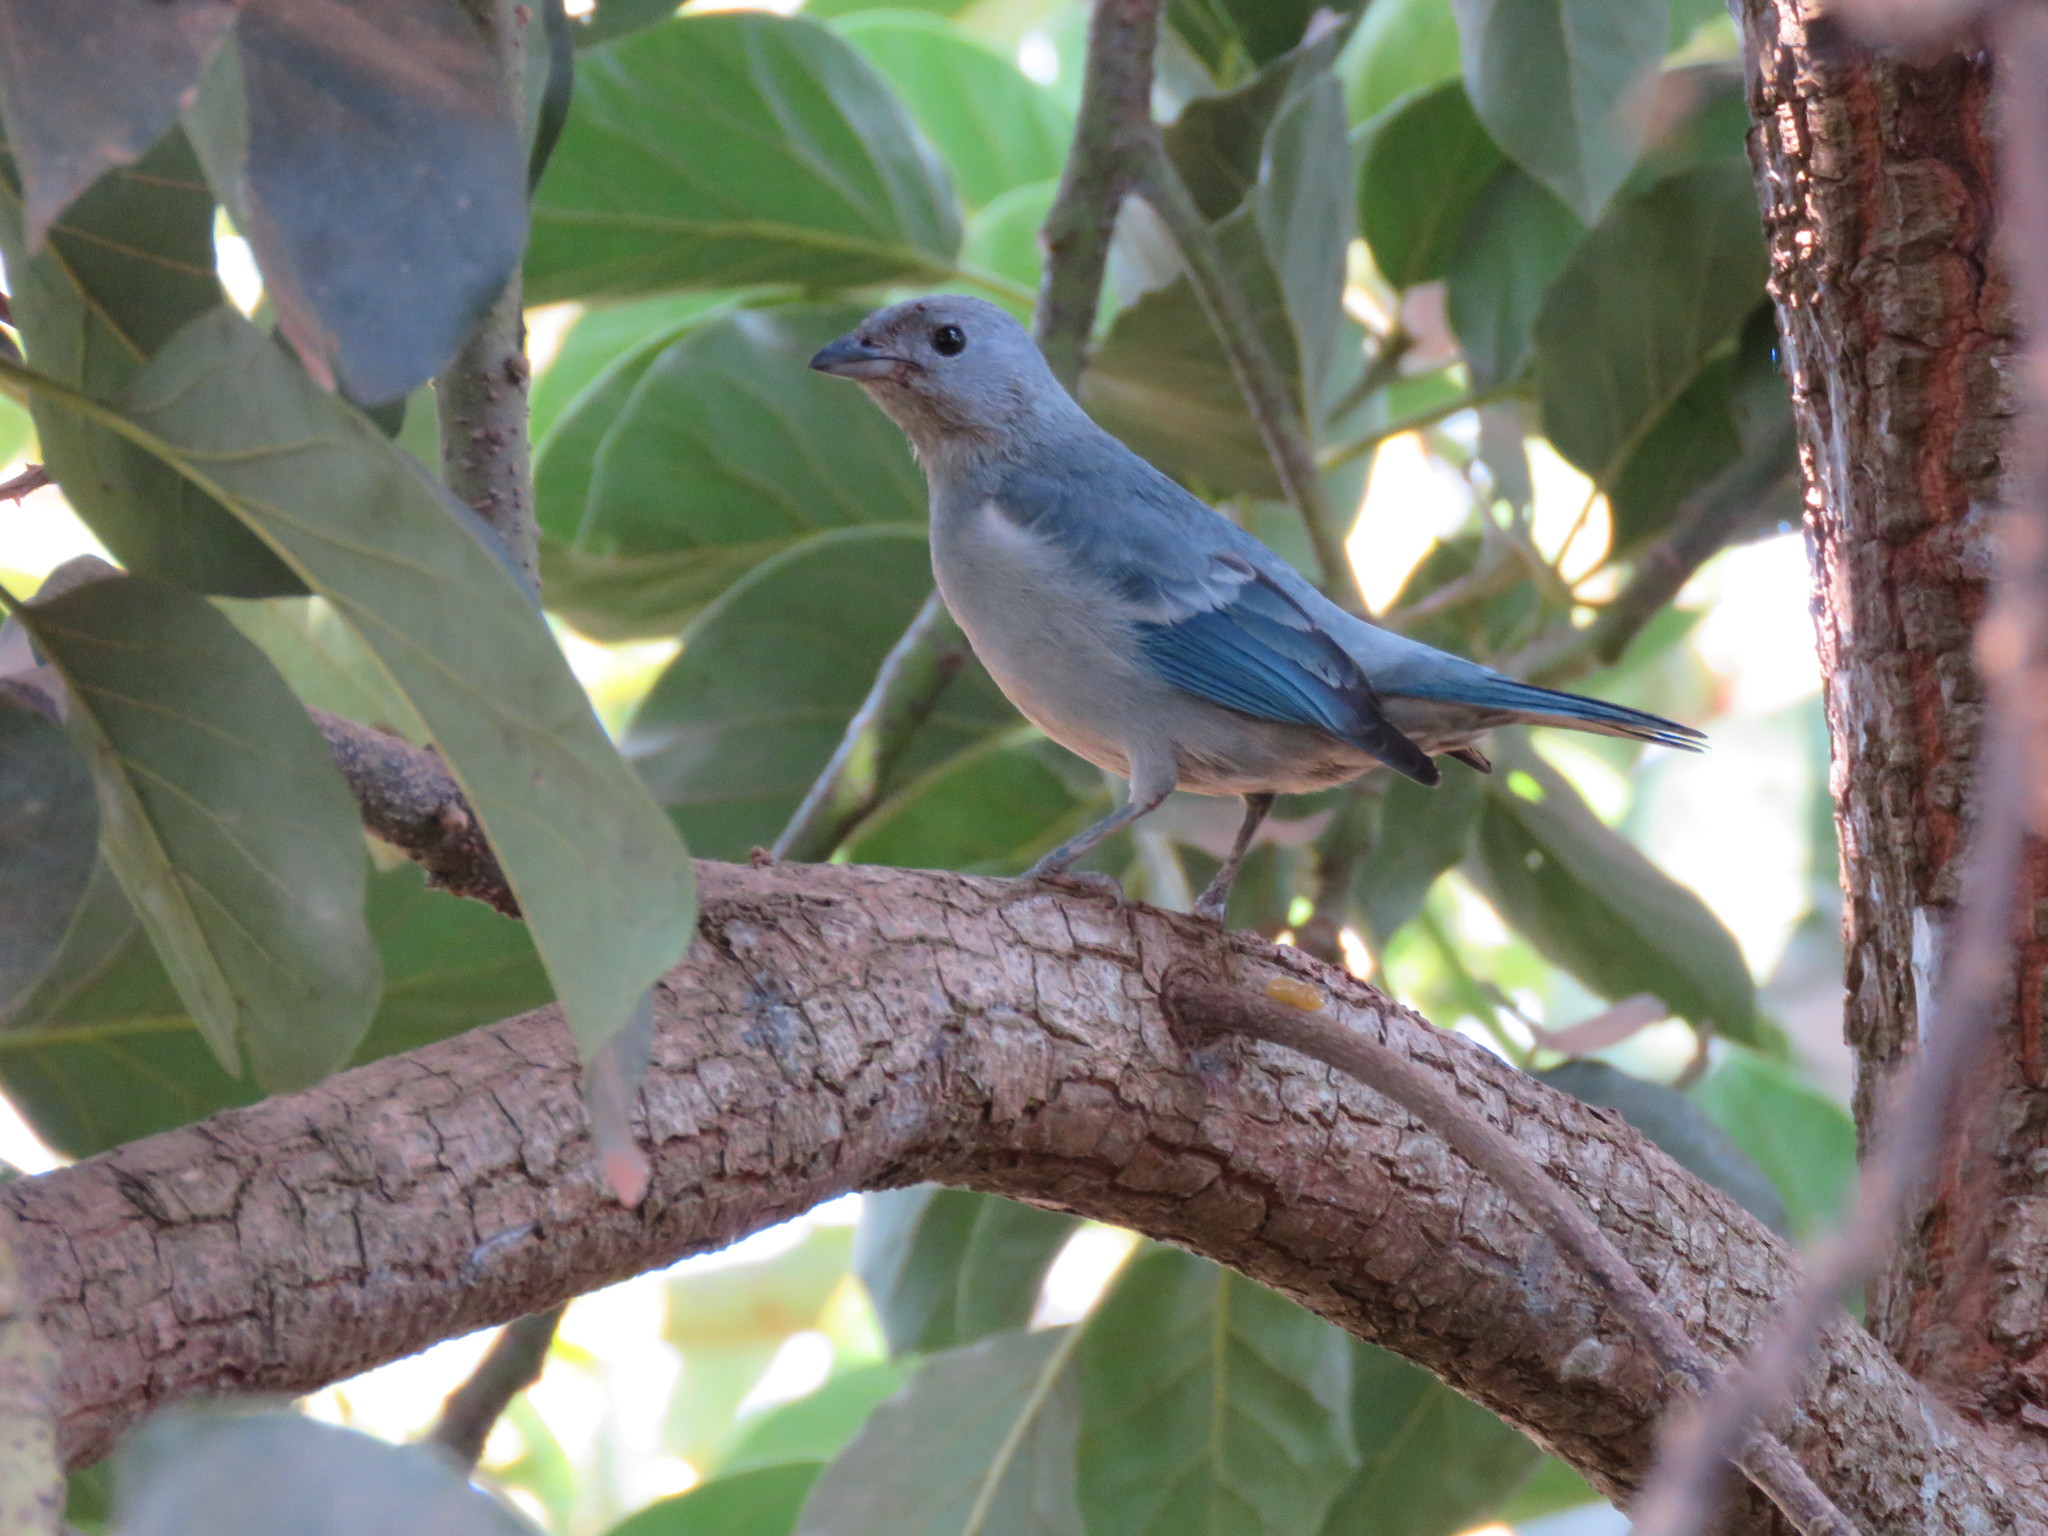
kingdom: Animalia
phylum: Chordata
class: Aves
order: Passeriformes
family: Thraupidae
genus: Thraupis
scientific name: Thraupis episcopus
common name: Blue-grey tanager
